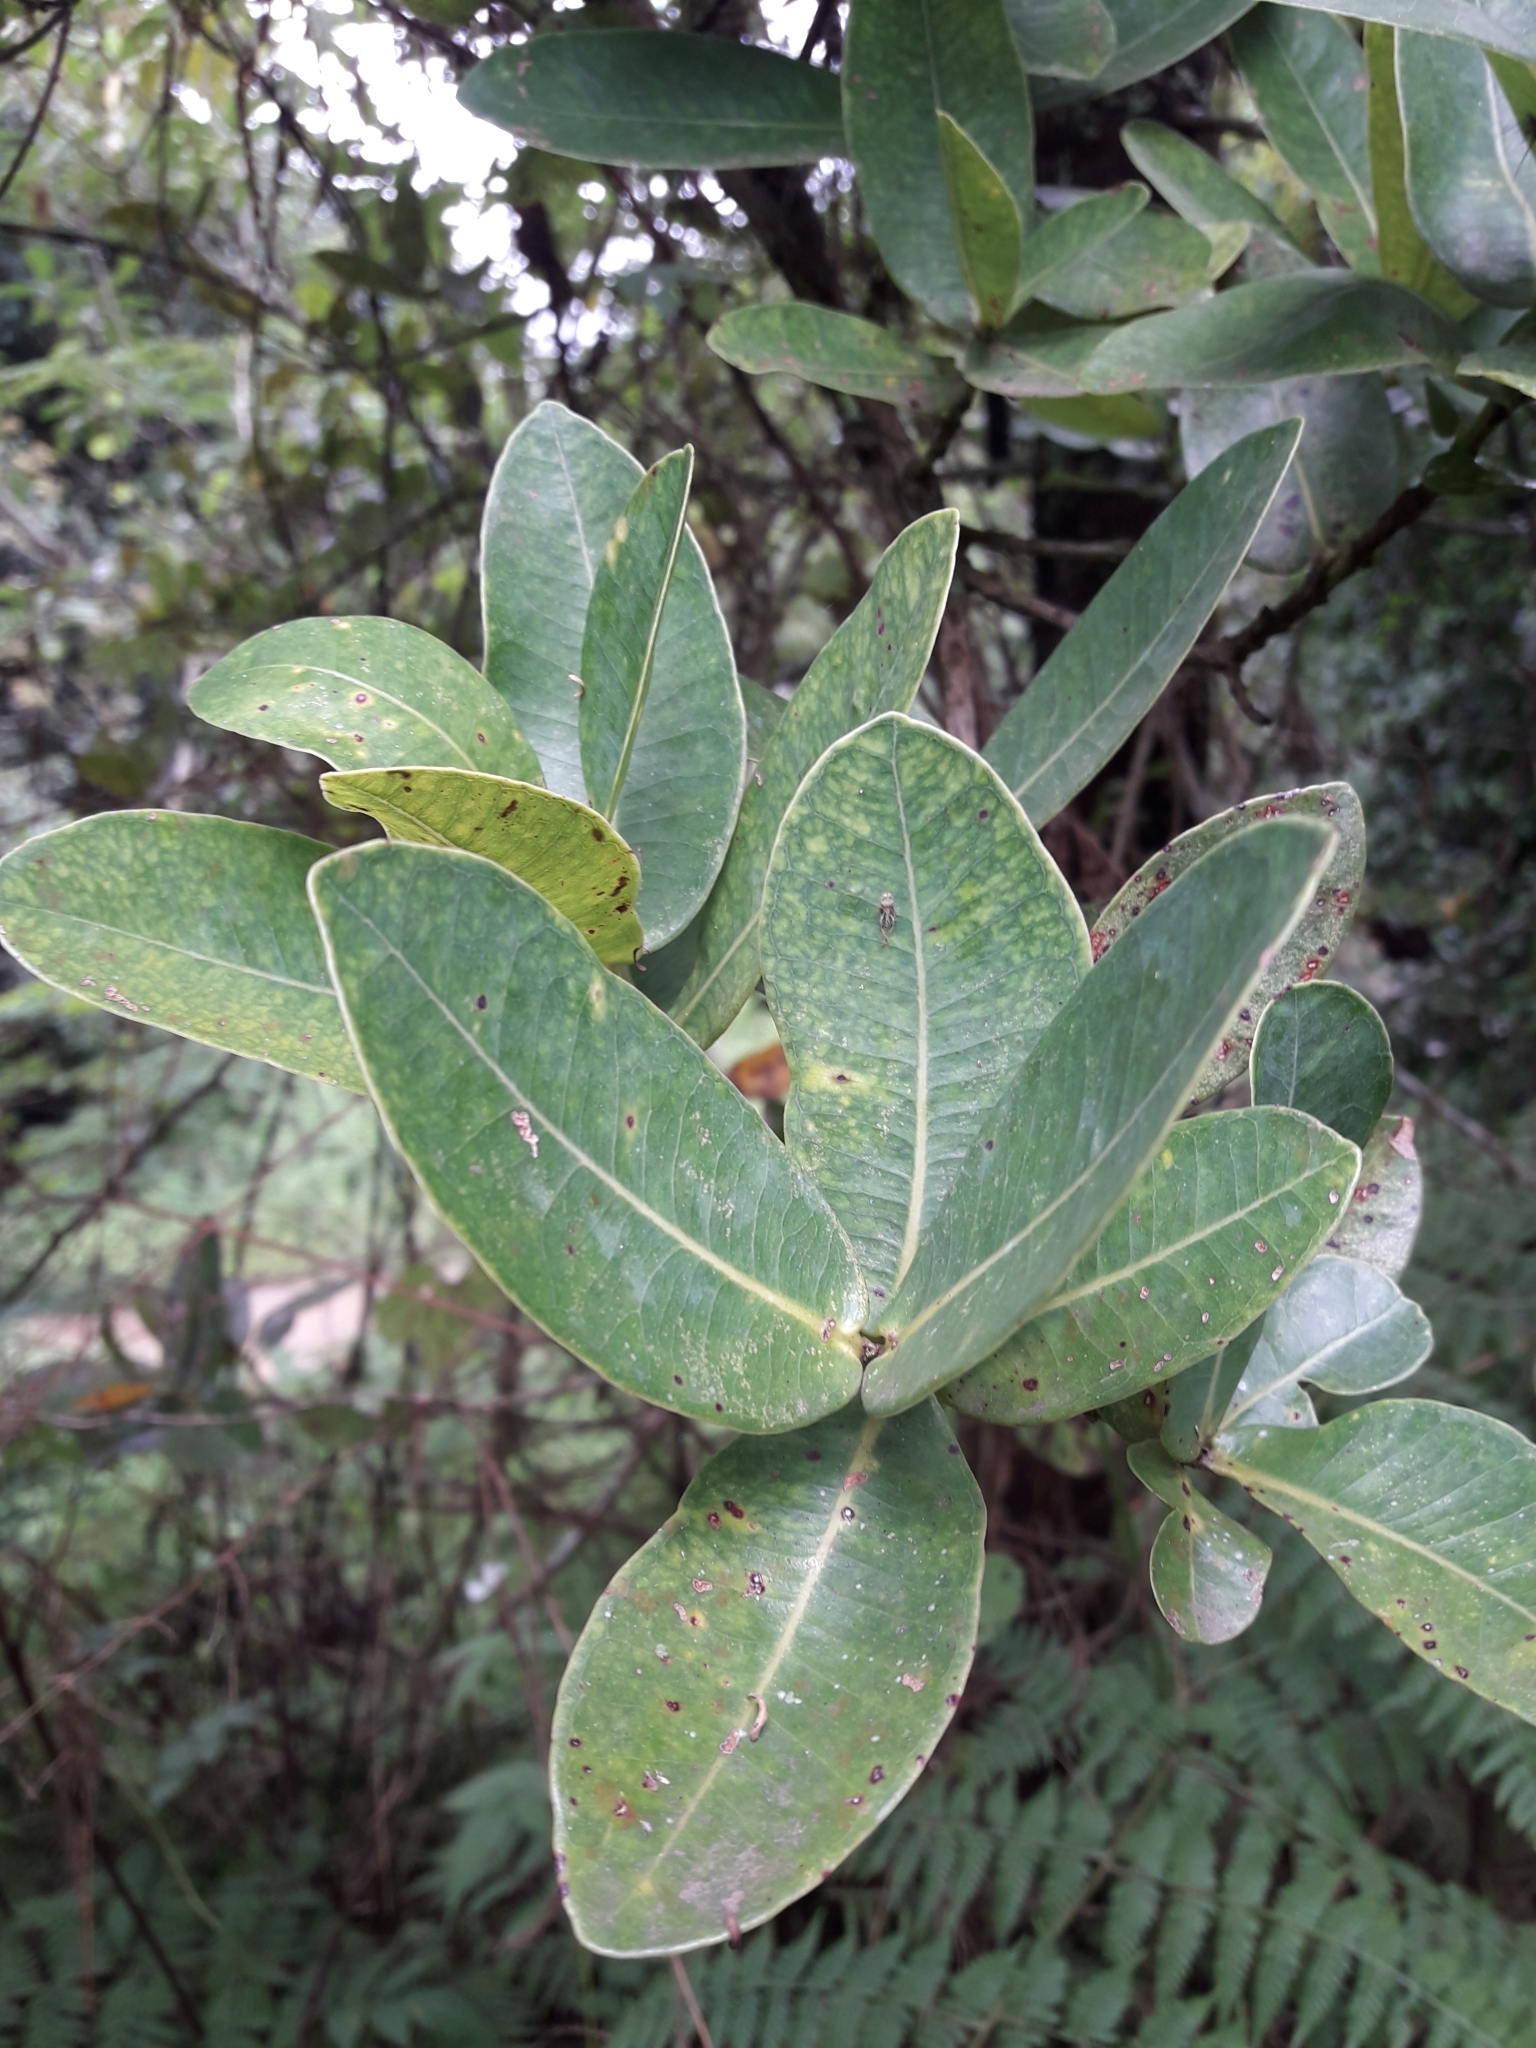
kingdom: Plantae
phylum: Tracheophyta
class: Magnoliopsida
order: Myrtales
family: Myrtaceae
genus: Syzygium
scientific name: Syzygium cordatum
